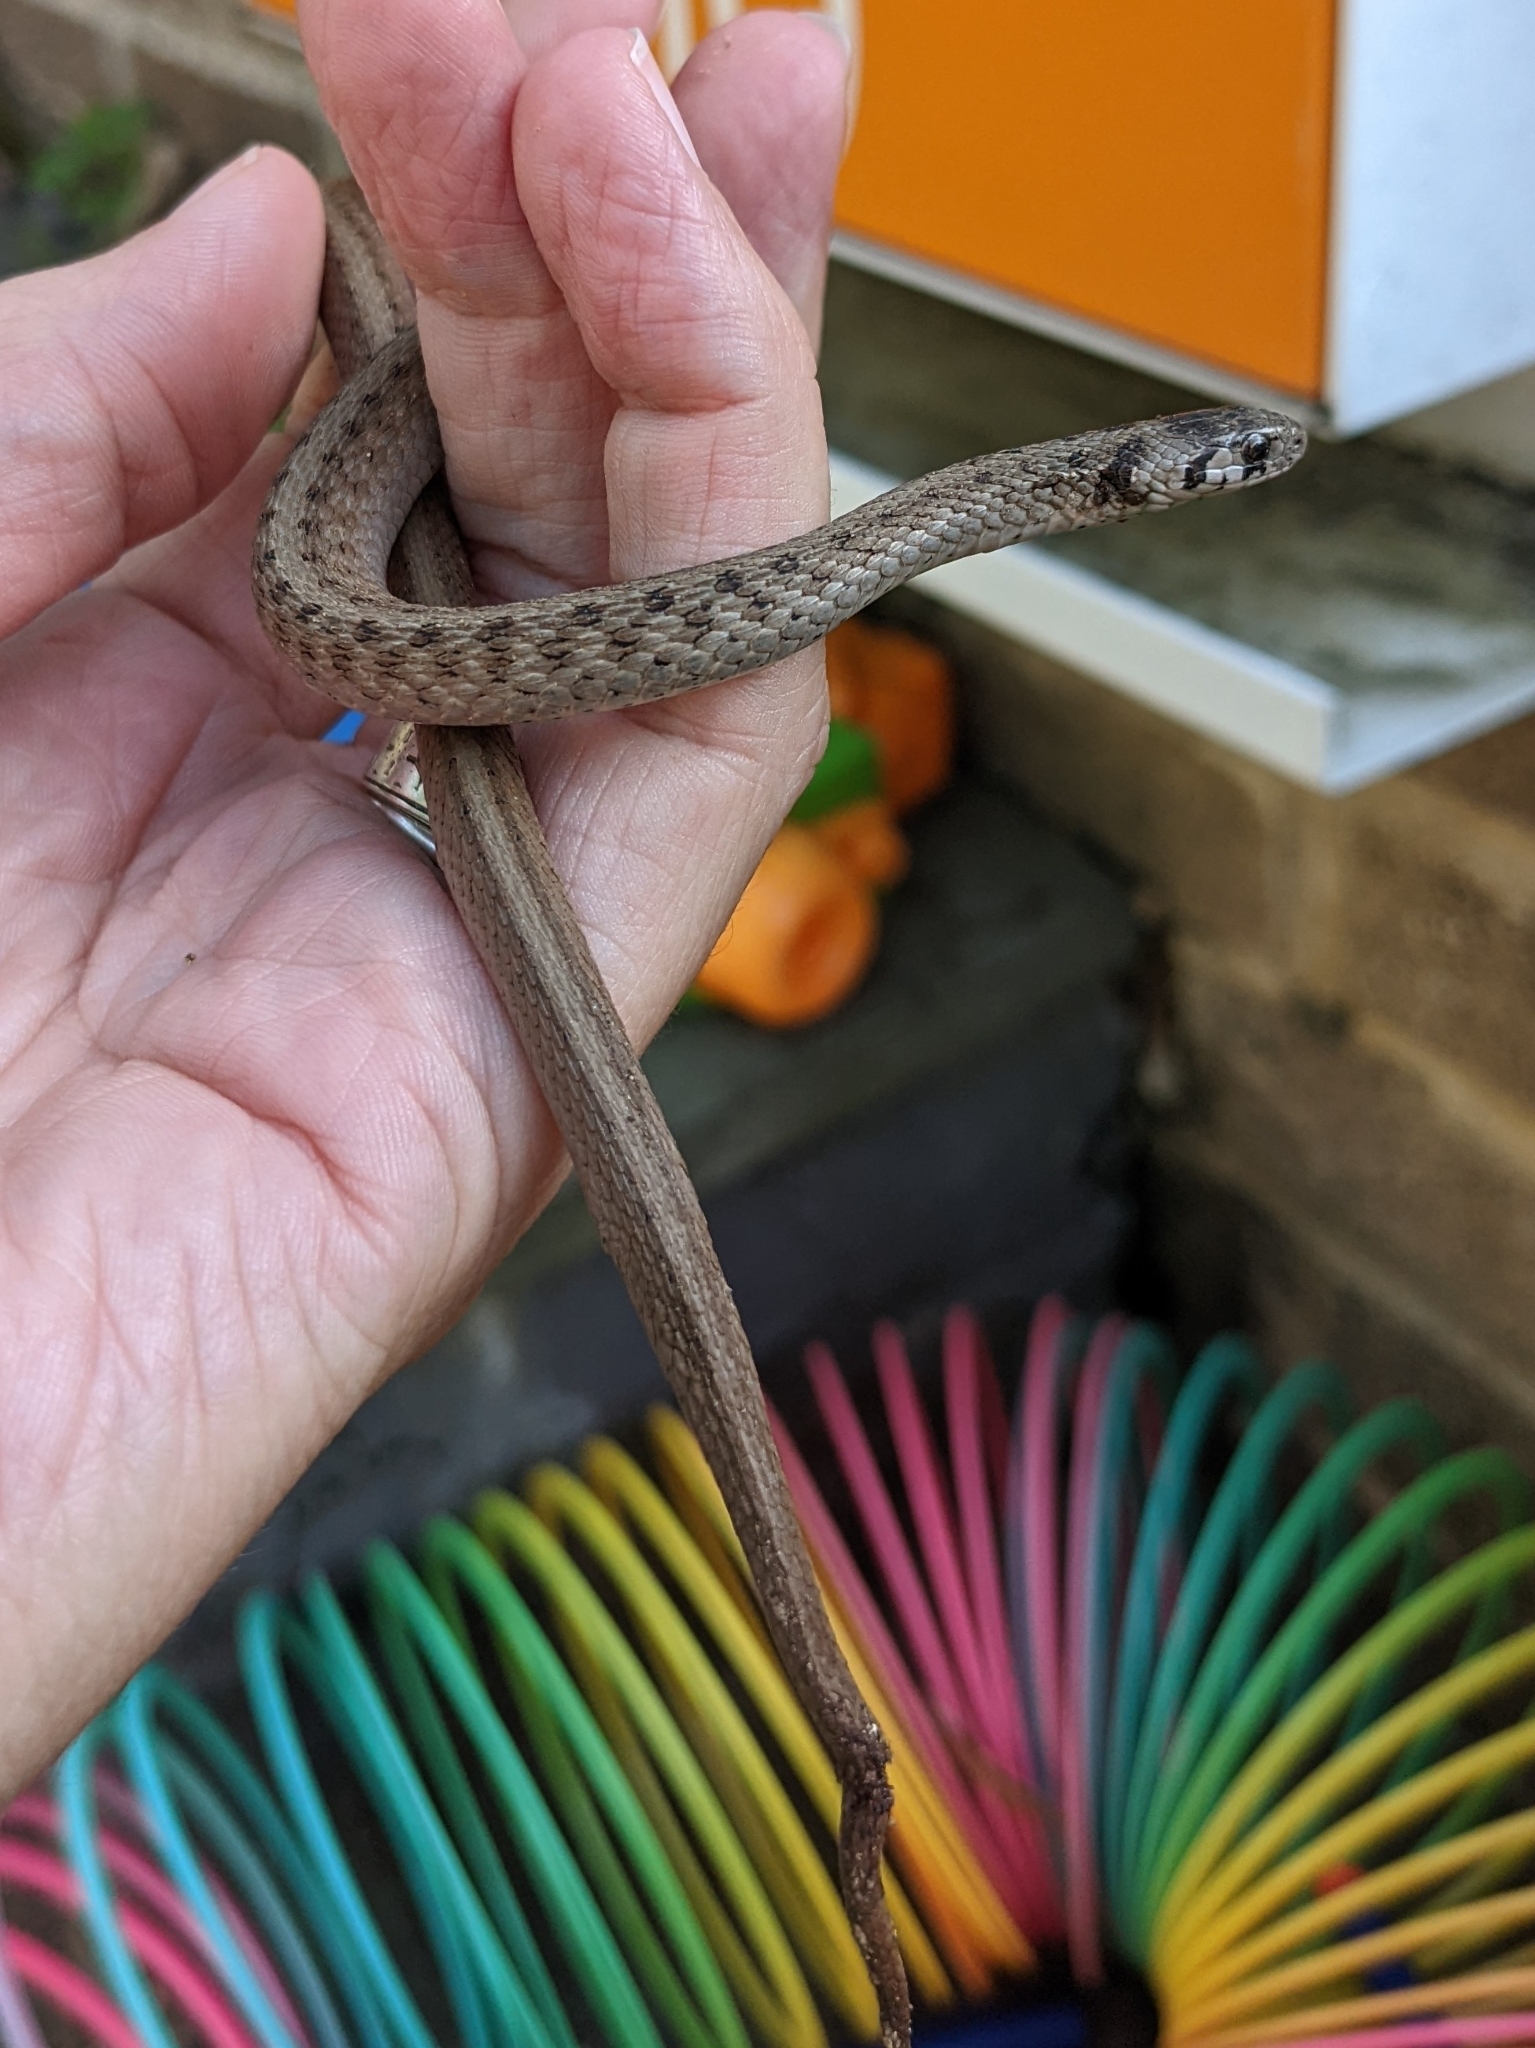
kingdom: Animalia
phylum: Chordata
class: Squamata
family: Colubridae
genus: Storeria
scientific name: Storeria dekayi
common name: (dekay’s) brown snake
